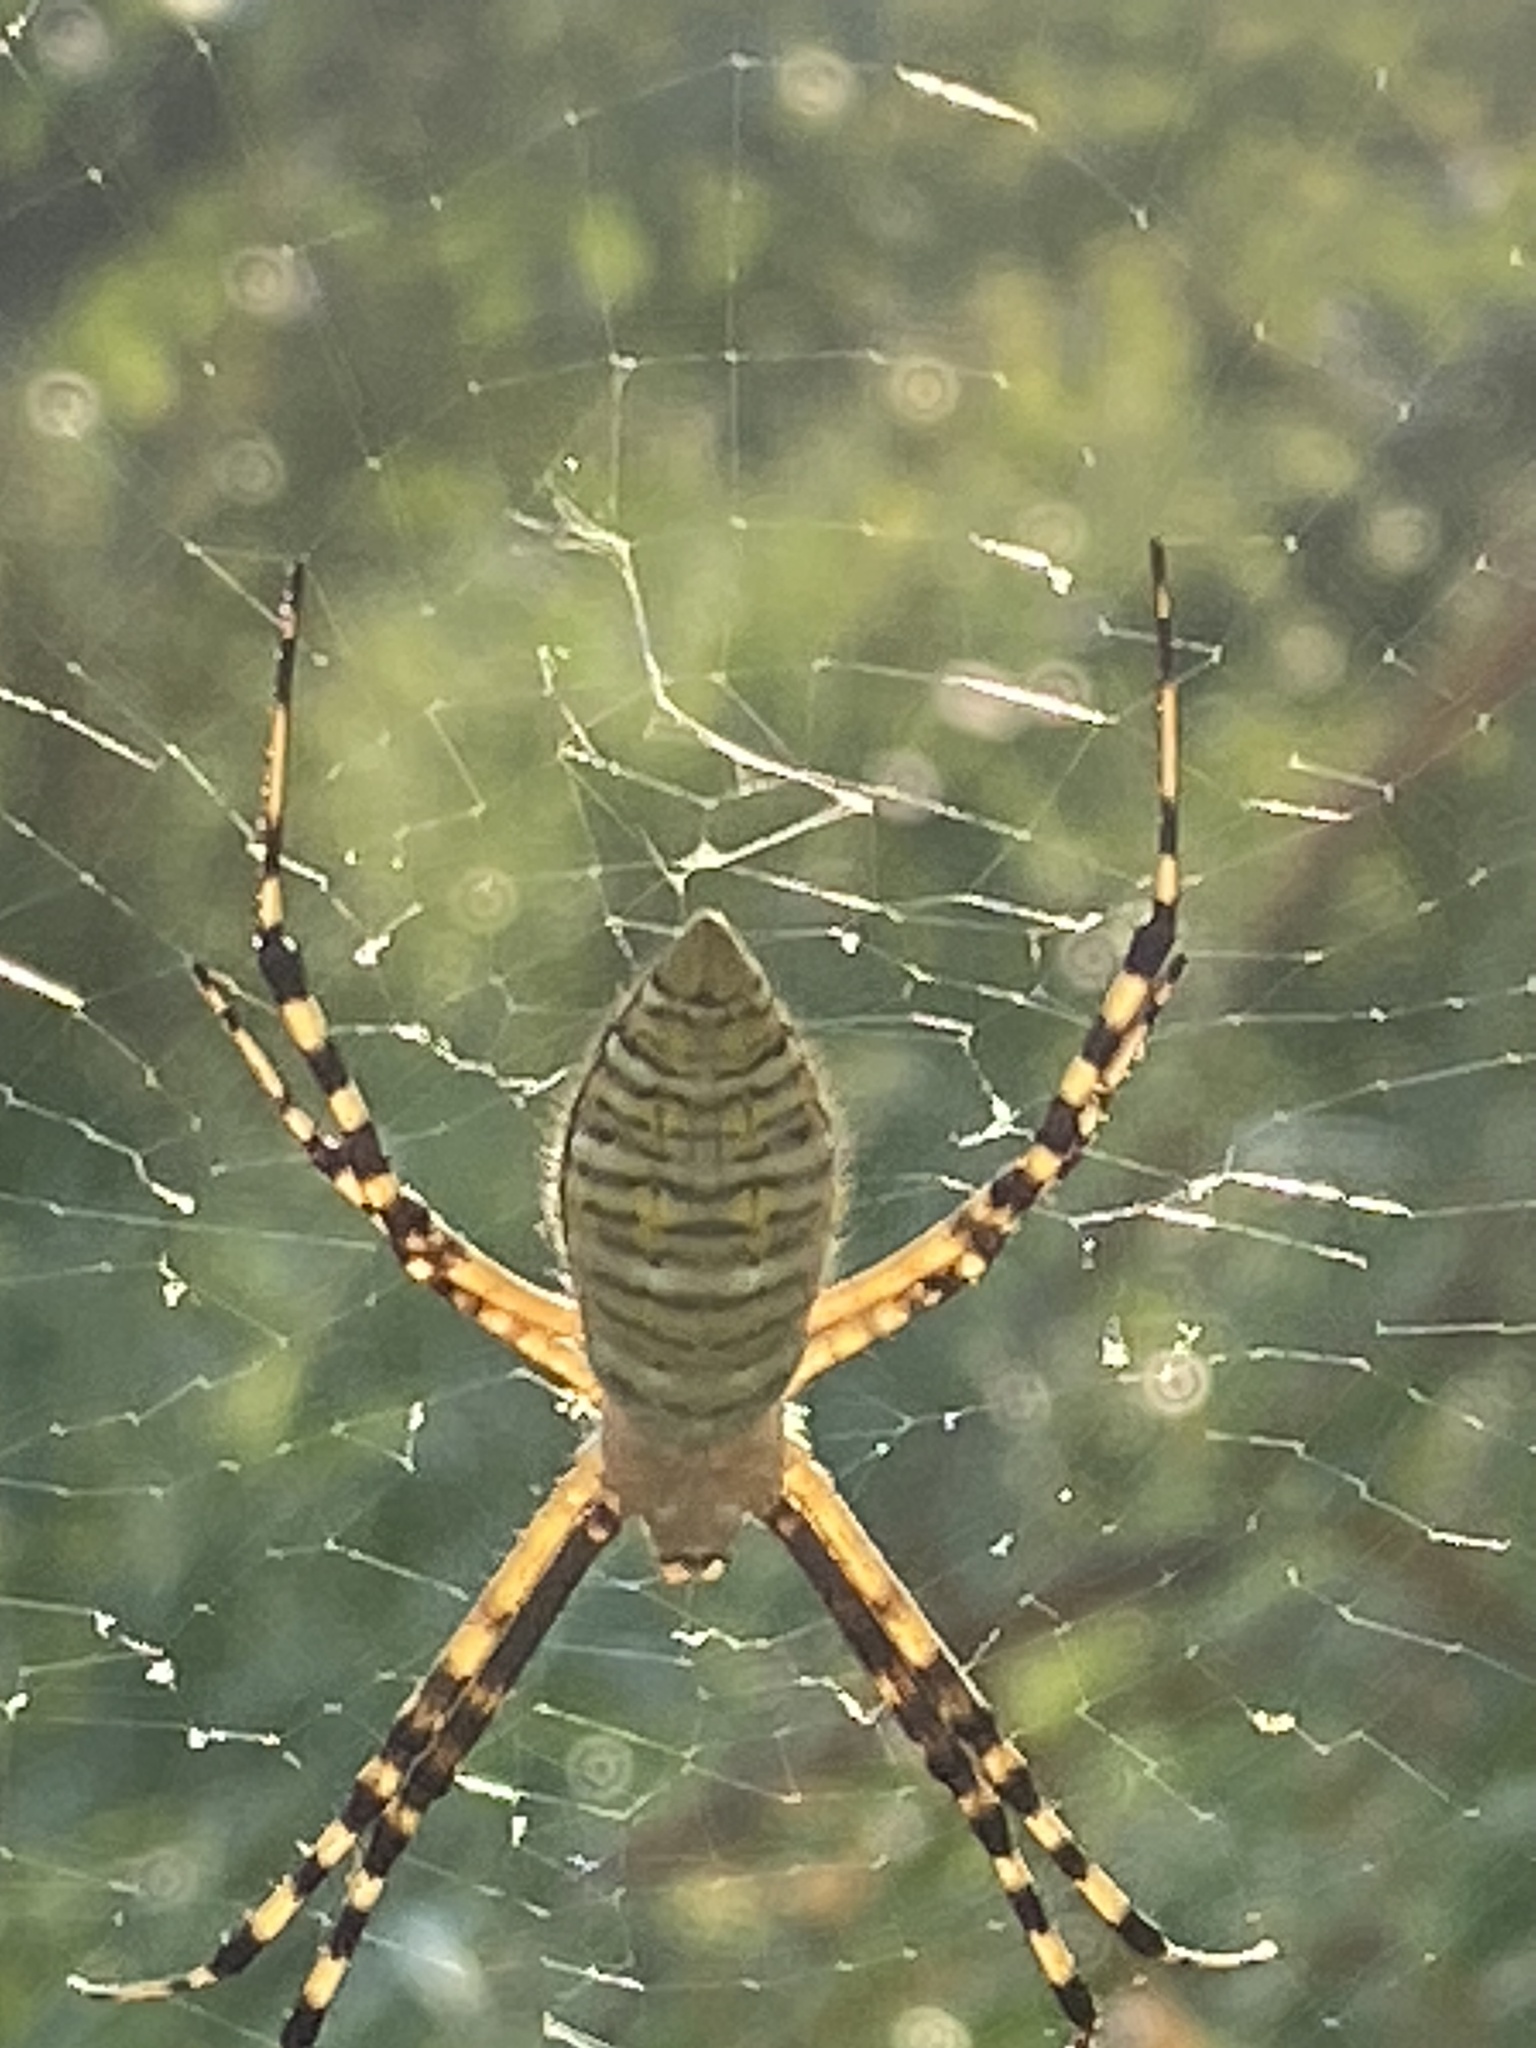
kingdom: Animalia
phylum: Arthropoda
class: Arachnida
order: Araneae
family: Araneidae
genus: Argiope
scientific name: Argiope trifasciata
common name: Banded garden spider
